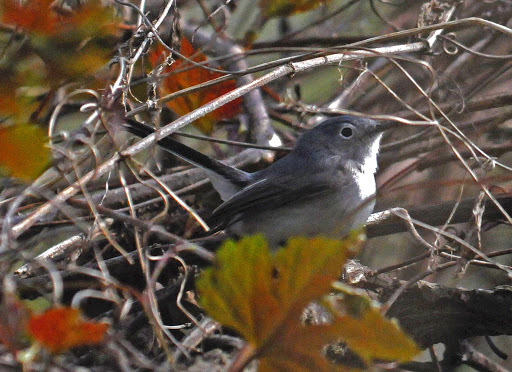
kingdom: Animalia
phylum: Chordata
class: Aves
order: Passeriformes
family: Polioptilidae
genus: Polioptila
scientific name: Polioptila caerulea
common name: Blue-gray gnatcatcher
